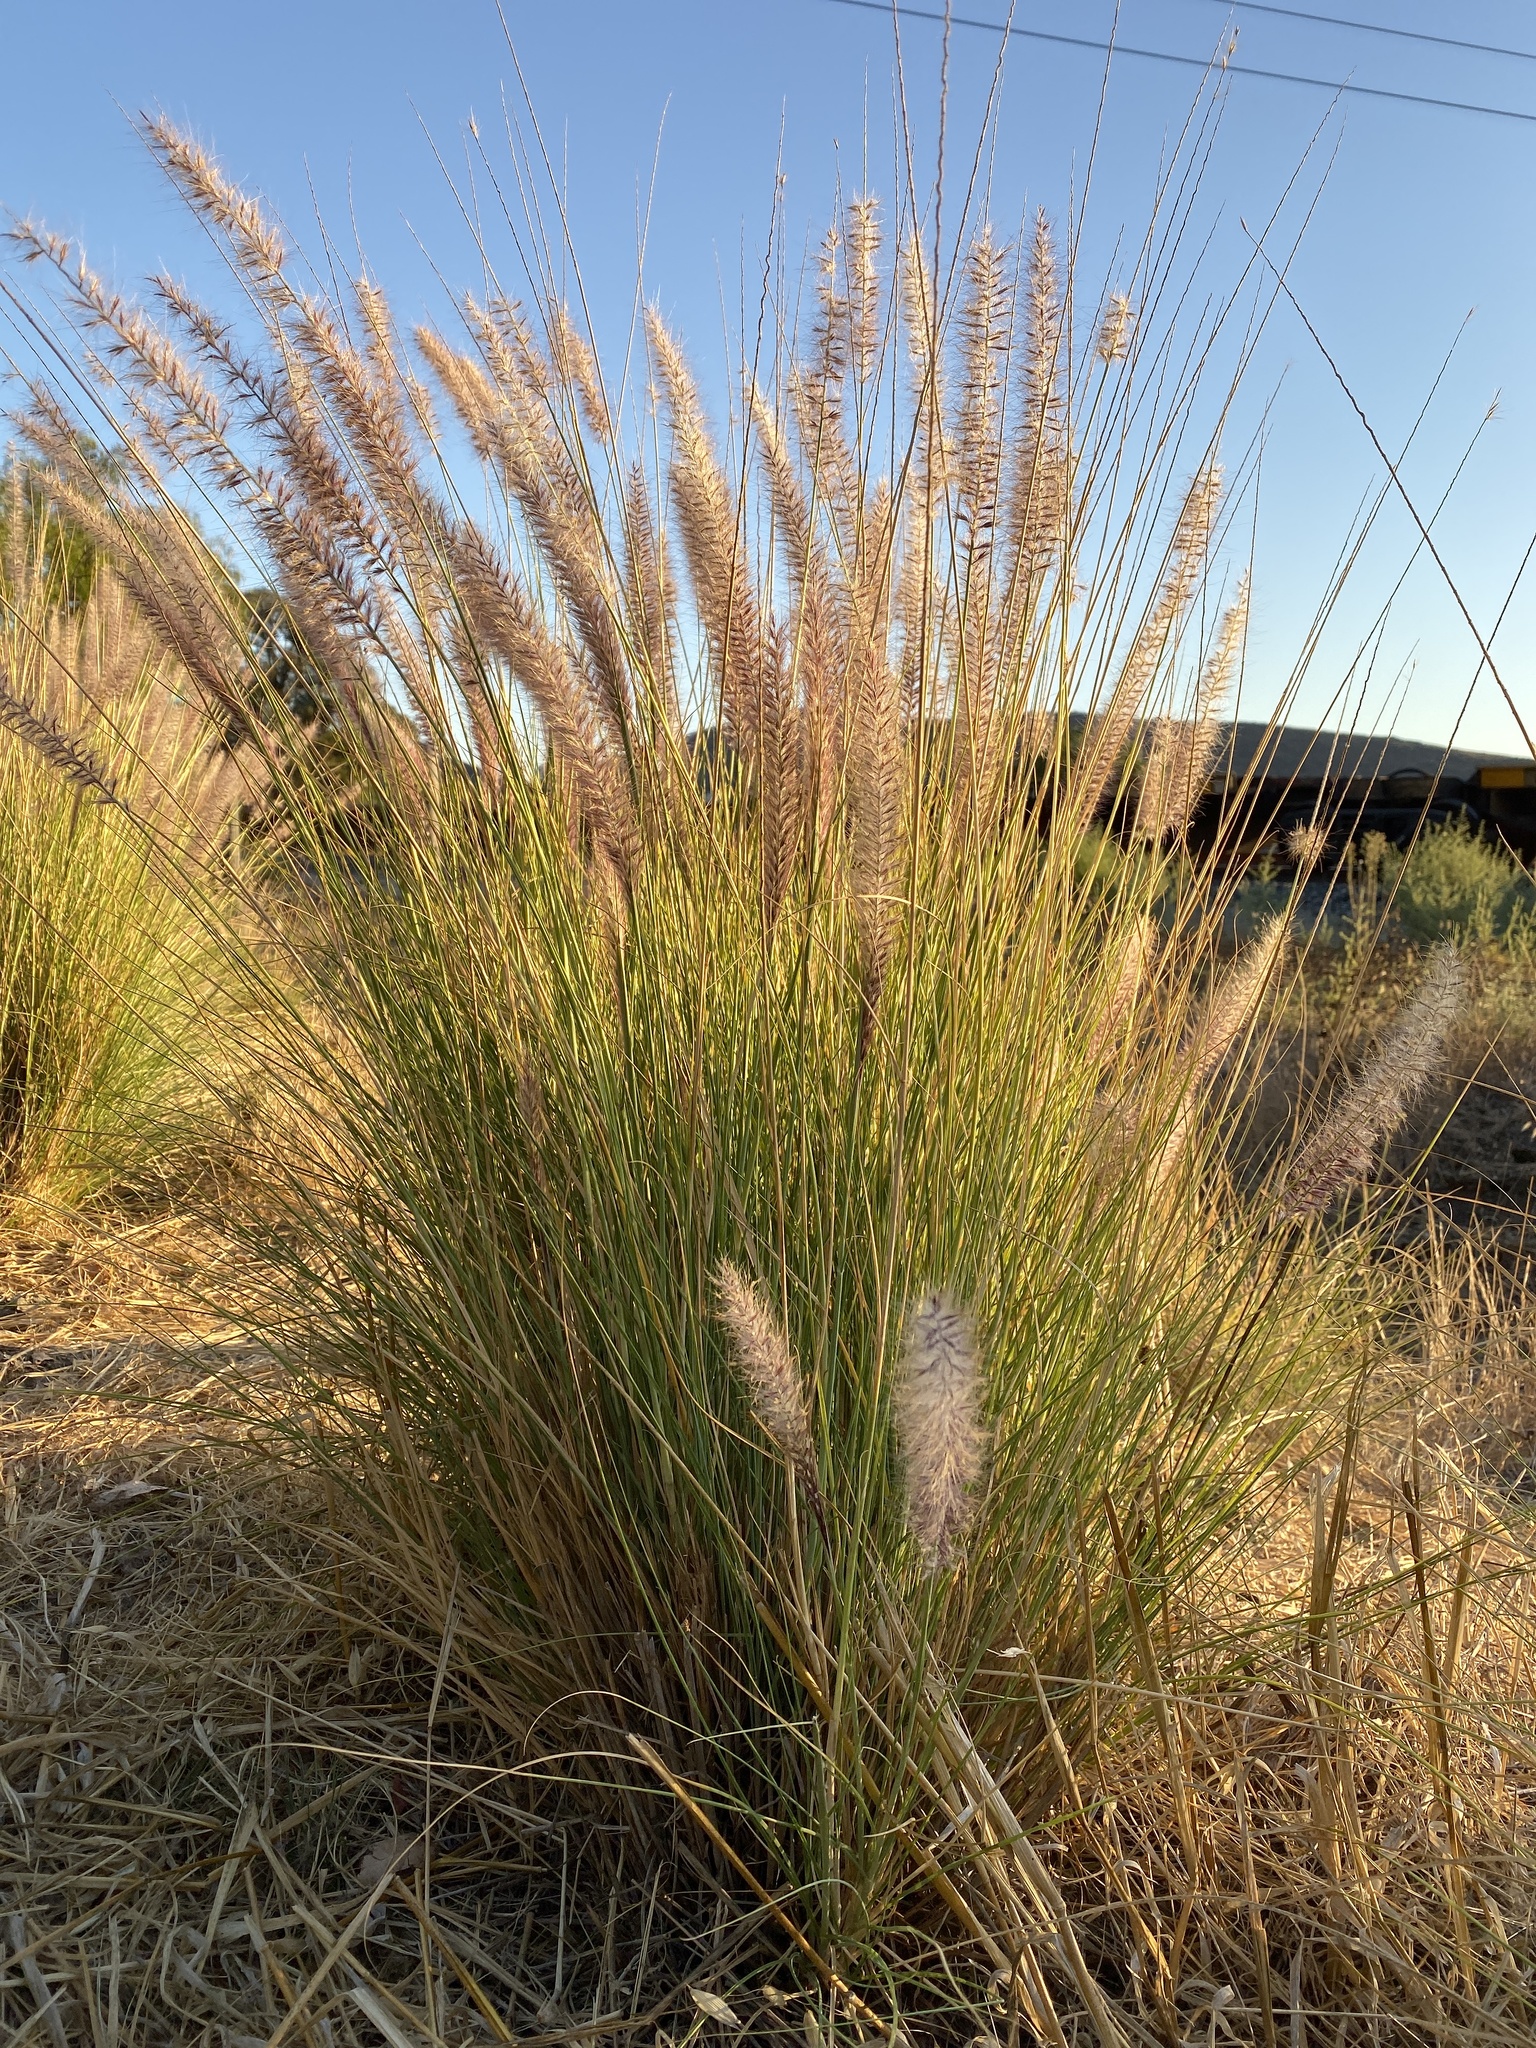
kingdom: Plantae
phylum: Tracheophyta
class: Liliopsida
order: Poales
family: Poaceae
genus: Cenchrus
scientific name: Cenchrus setaceus
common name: Crimson fountaingrass
